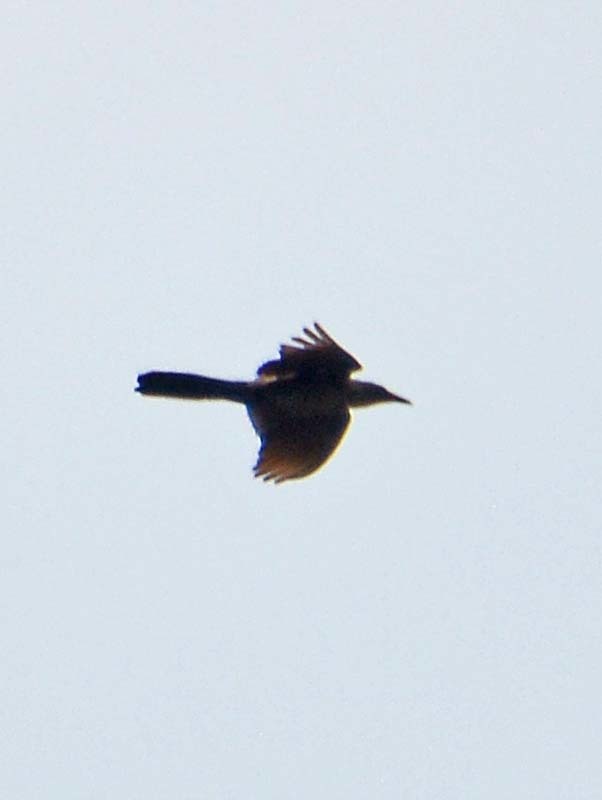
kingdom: Animalia
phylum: Chordata
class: Aves
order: Passeriformes
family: Icteridae
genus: Quiscalus
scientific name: Quiscalus mexicanus
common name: Great-tailed grackle
